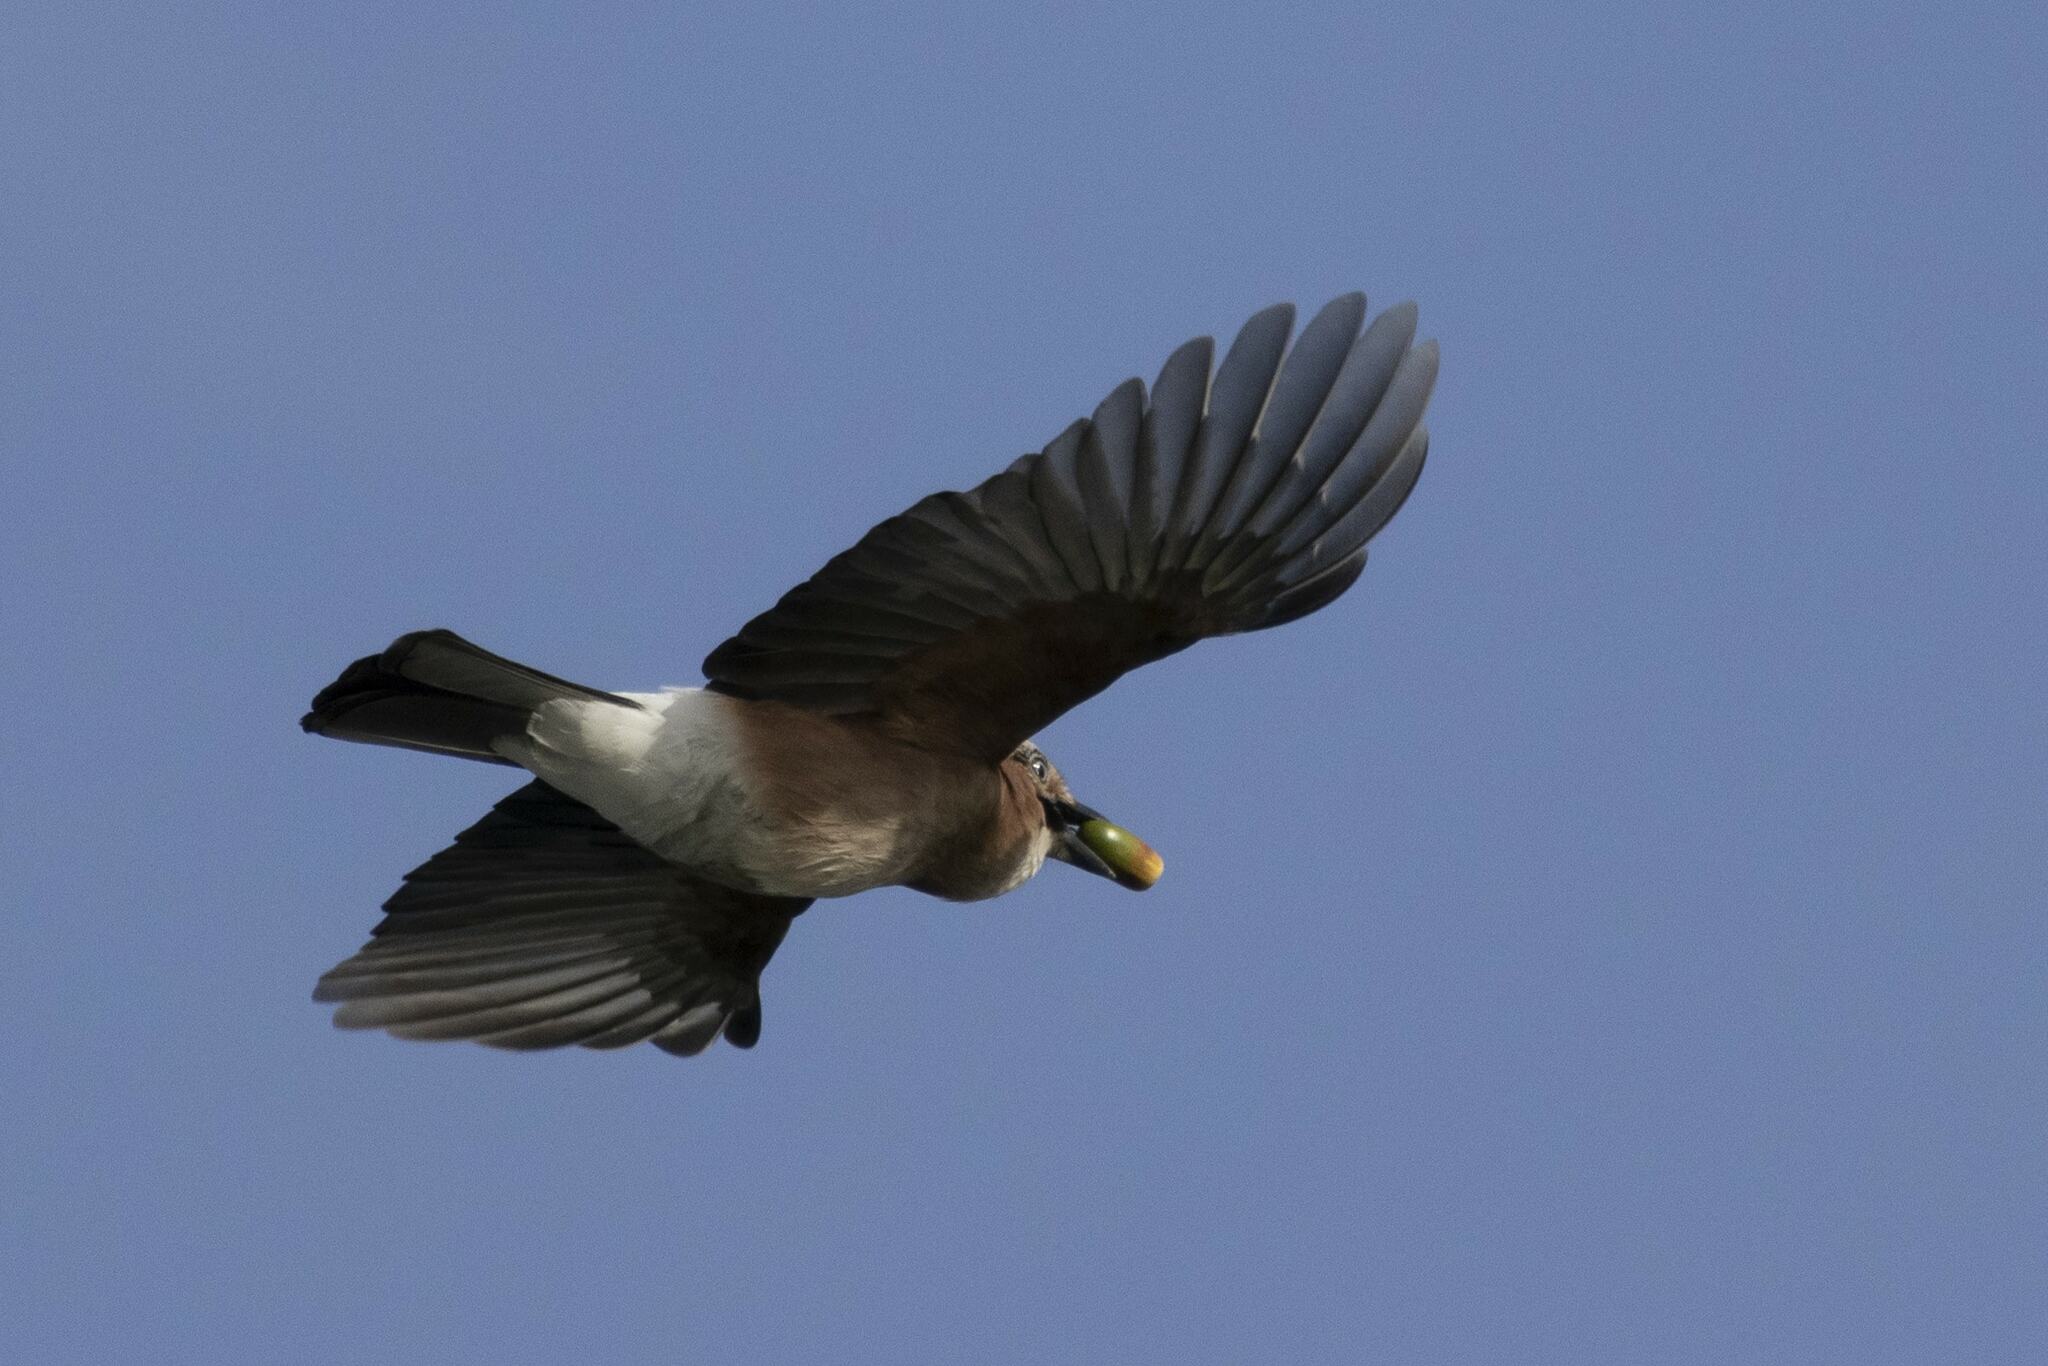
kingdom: Animalia
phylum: Chordata
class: Aves
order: Passeriformes
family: Corvidae
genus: Garrulus
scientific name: Garrulus glandarius
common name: Eurasian jay
